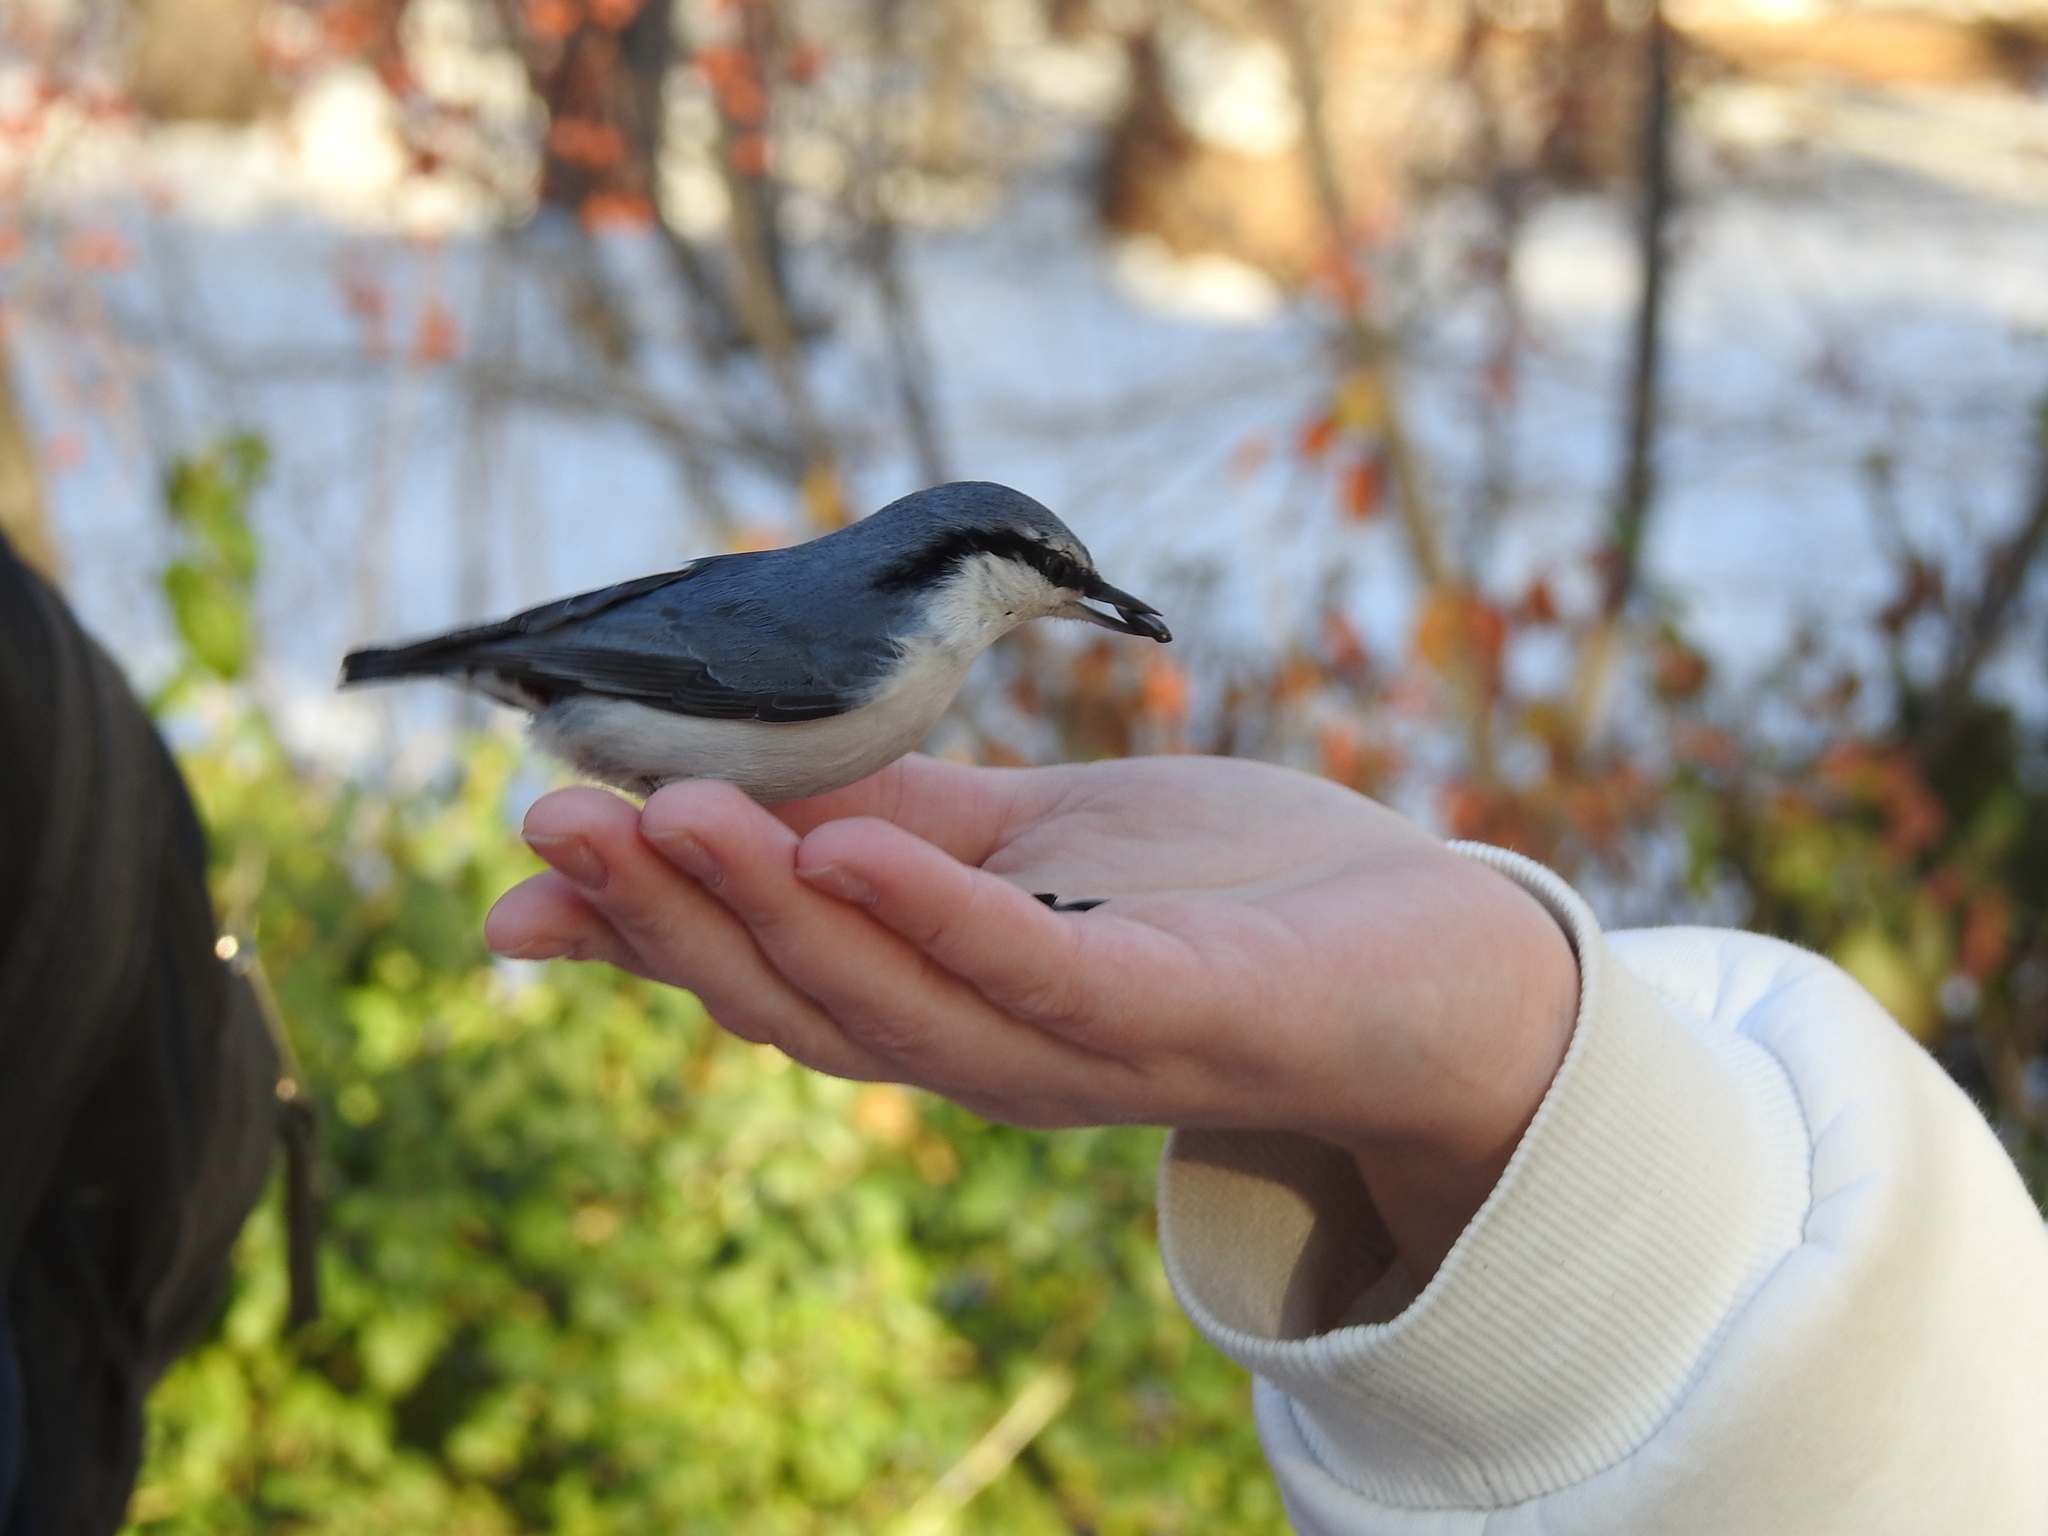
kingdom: Animalia
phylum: Chordata
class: Aves
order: Passeriformes
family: Sittidae
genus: Sitta
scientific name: Sitta europaea
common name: Eurasian nuthatch
